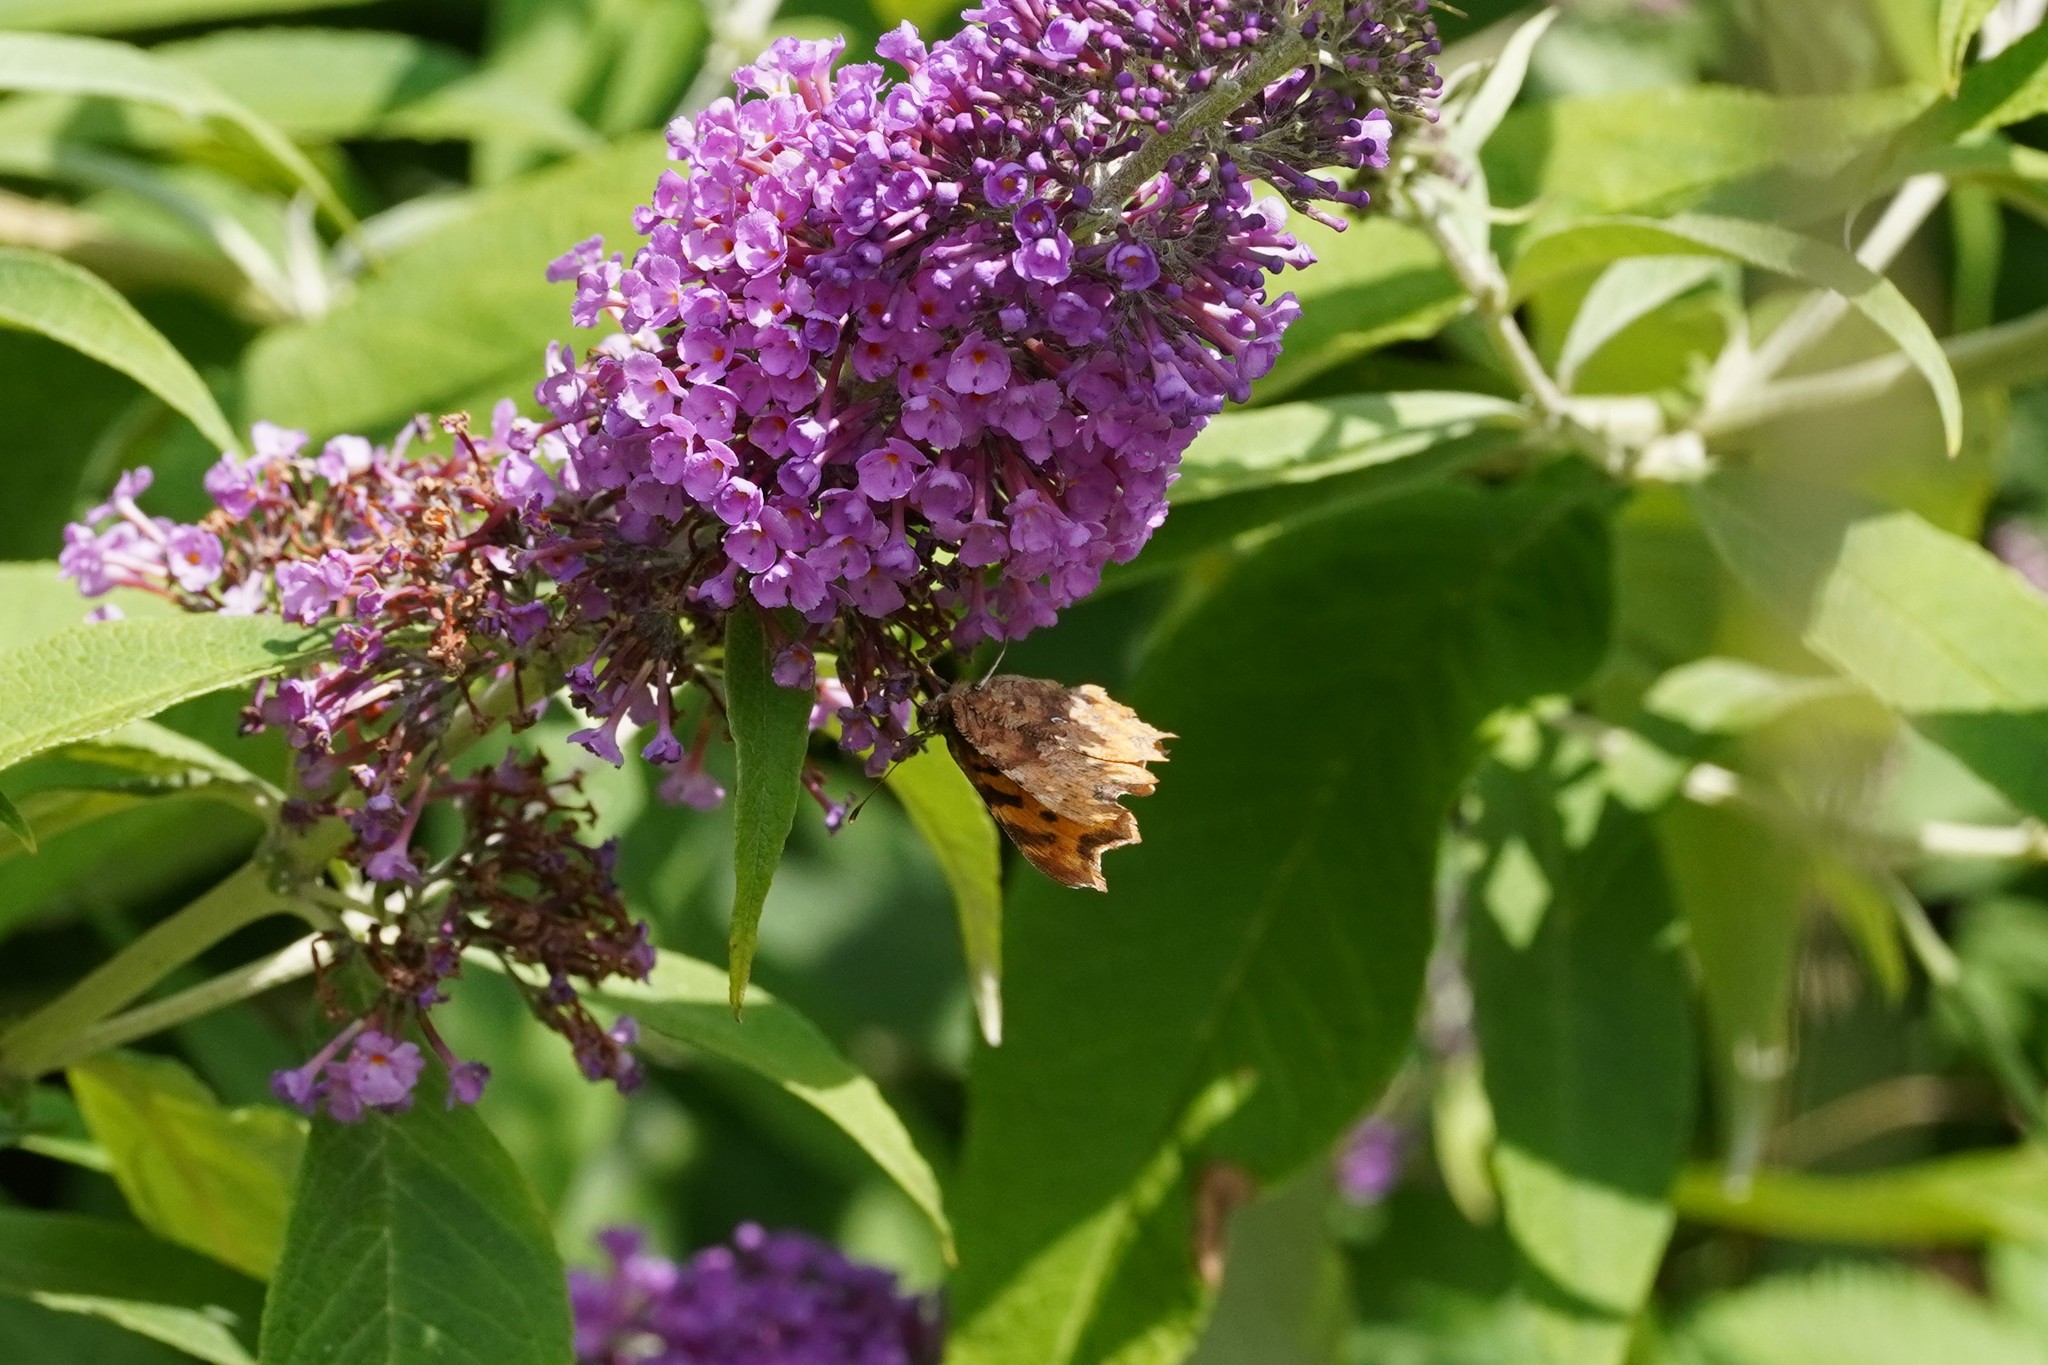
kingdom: Animalia
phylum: Arthropoda
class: Insecta
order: Lepidoptera
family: Nymphalidae
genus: Polygonia
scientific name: Polygonia c-album
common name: Comma
